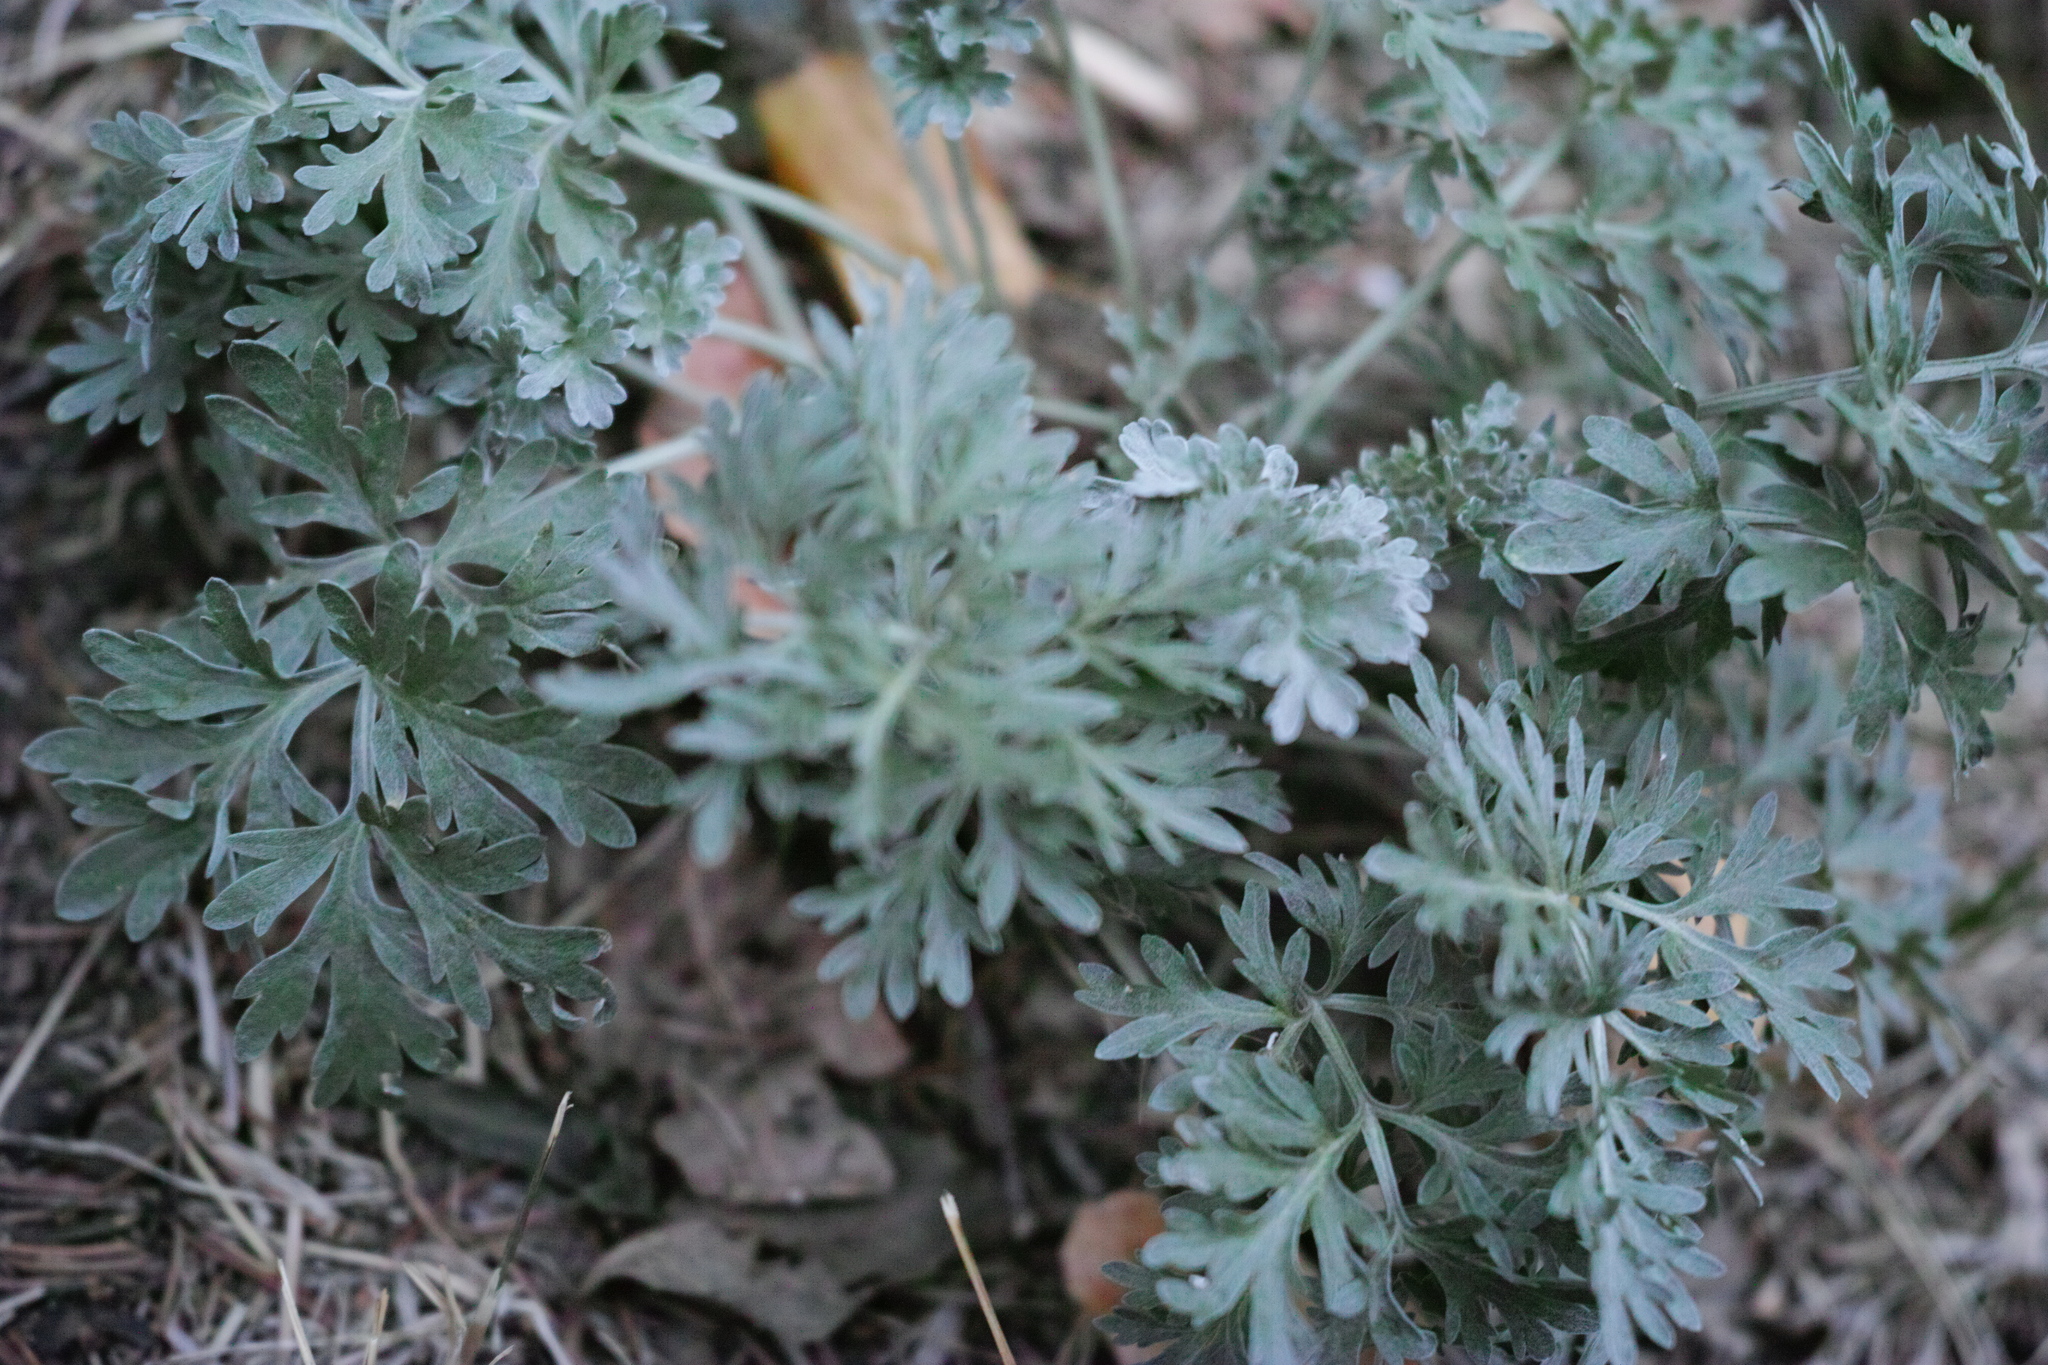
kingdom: Plantae
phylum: Tracheophyta
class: Magnoliopsida
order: Asterales
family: Asteraceae
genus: Artemisia
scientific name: Artemisia absinthium
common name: Wormwood
